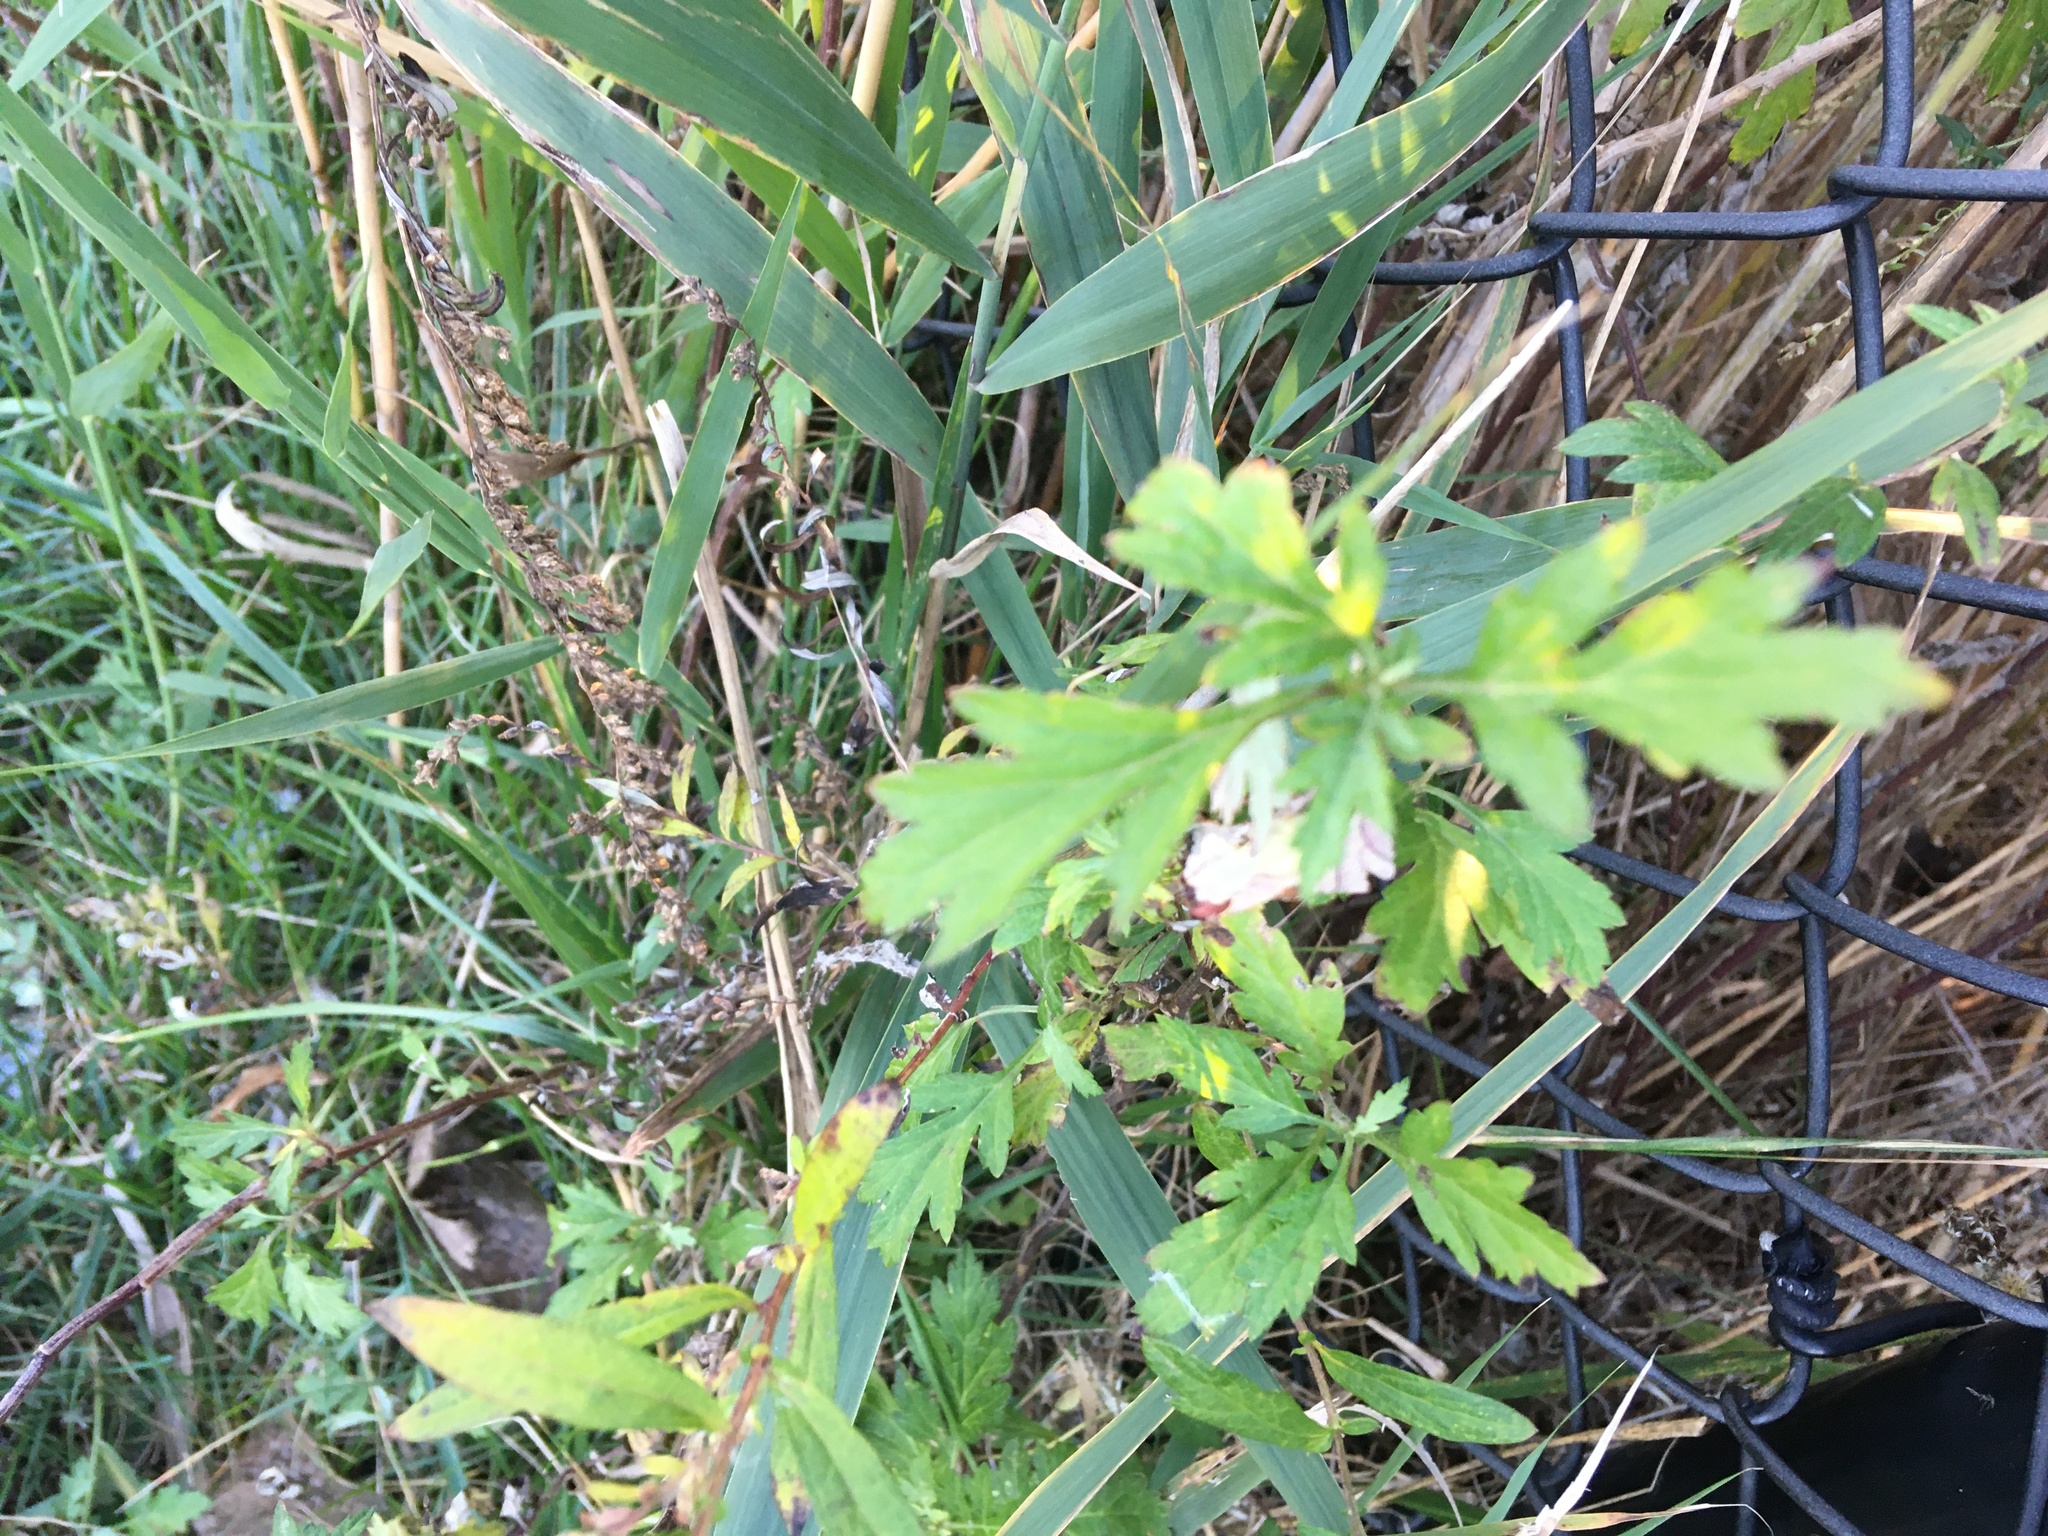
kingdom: Plantae
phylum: Tracheophyta
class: Magnoliopsida
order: Asterales
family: Asteraceae
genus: Artemisia
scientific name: Artemisia vulgaris
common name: Mugwort
